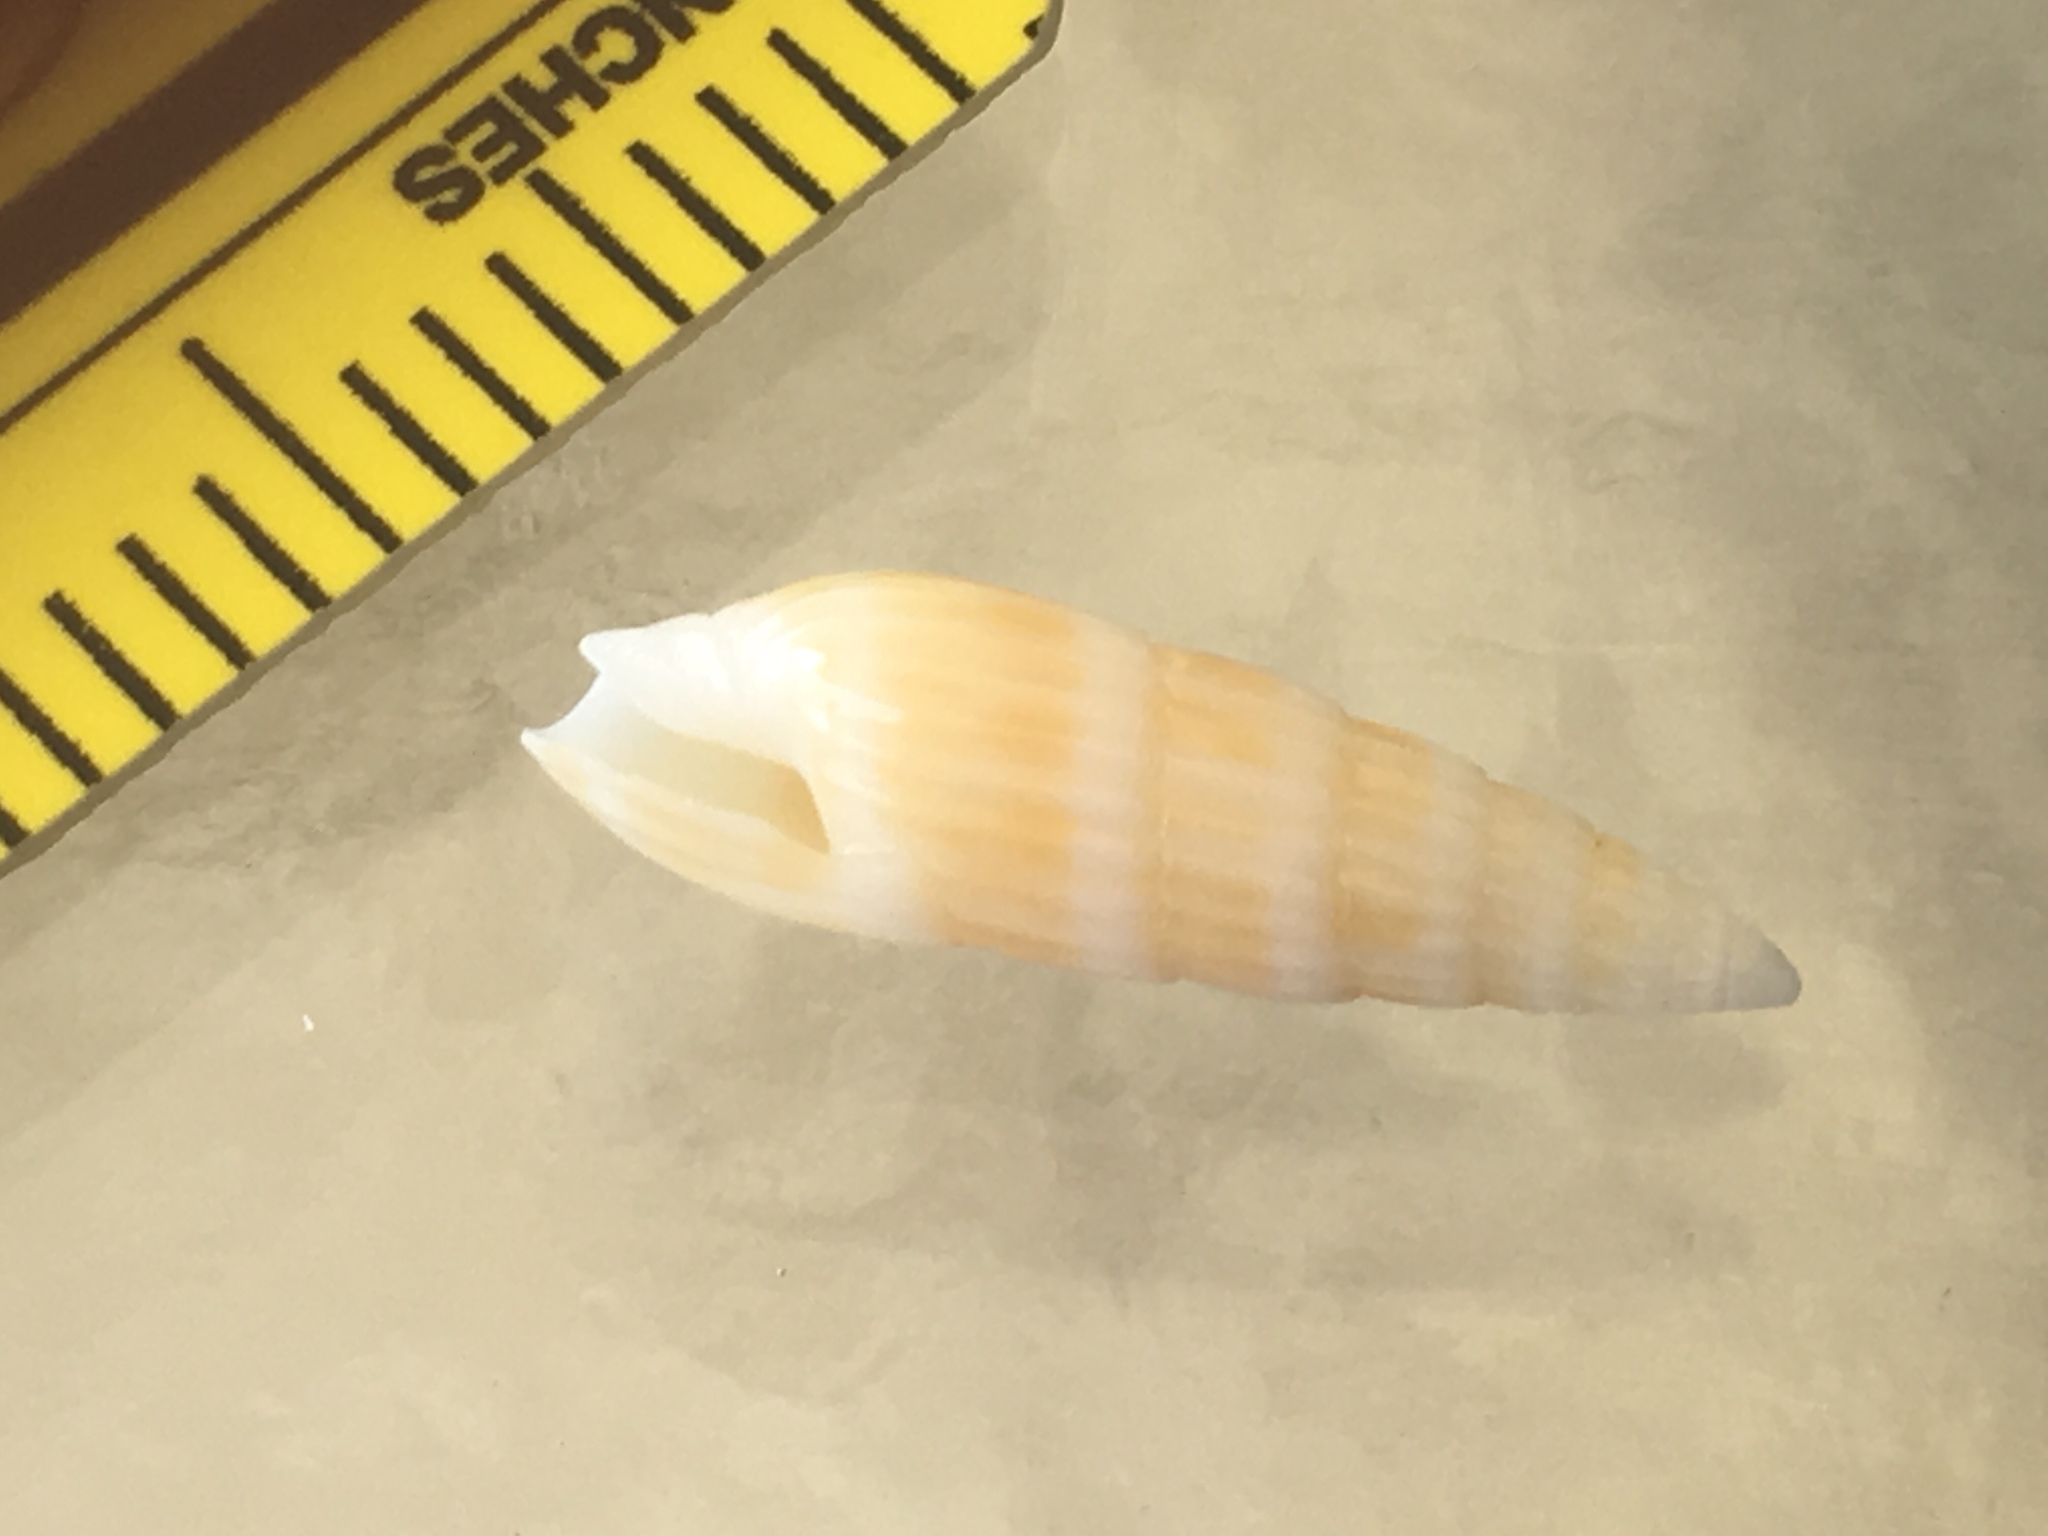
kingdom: Animalia
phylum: Mollusca
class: Gastropoda
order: Neogastropoda
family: Terebridae
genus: Hastula
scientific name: Hastula hastata
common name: Shiny auger
